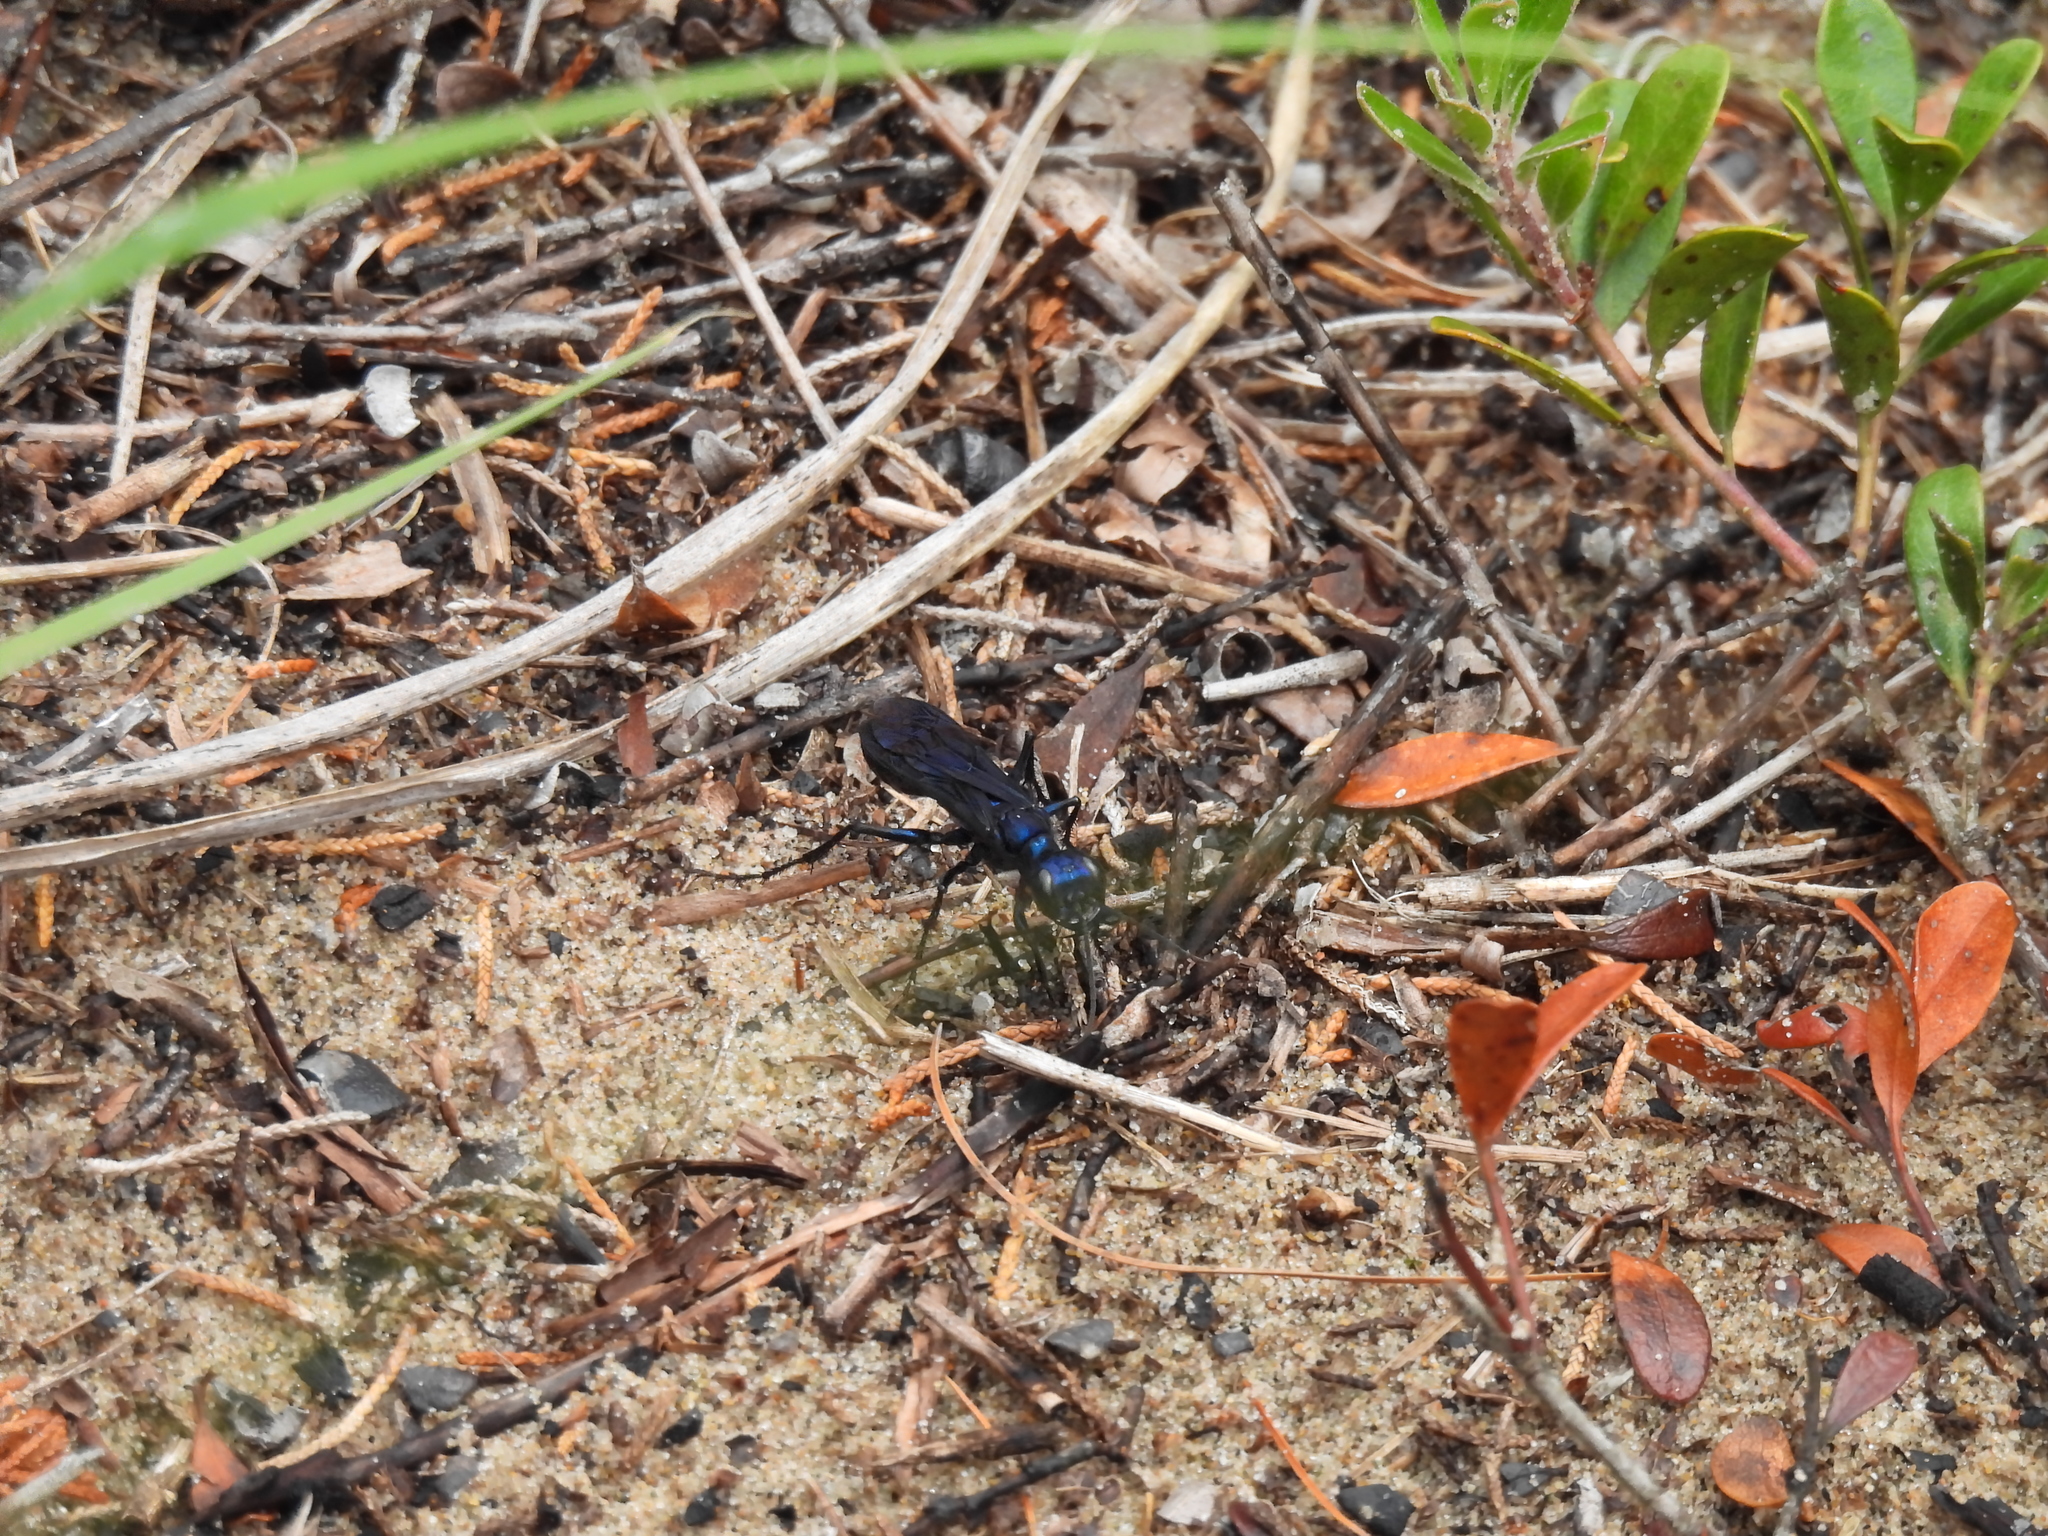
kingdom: Animalia
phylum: Arthropoda
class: Insecta
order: Hymenoptera
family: Sphecidae
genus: Chlorion
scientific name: Chlorion aerarium
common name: Steel-blue cricket hunter
